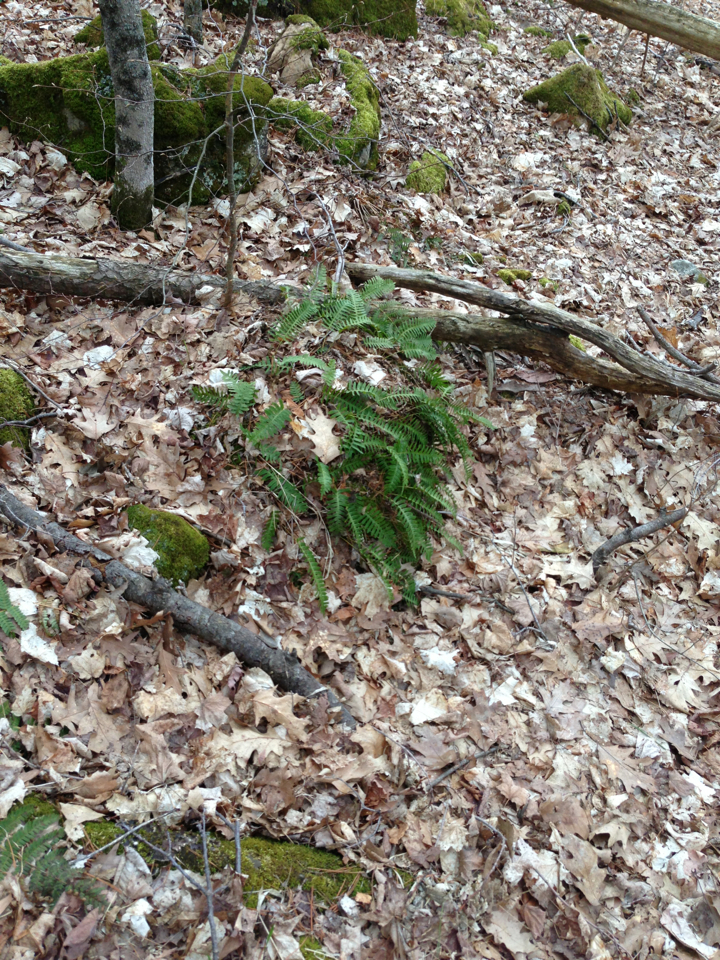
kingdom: Plantae
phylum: Tracheophyta
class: Polypodiopsida
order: Polypodiales
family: Polypodiaceae
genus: Polypodium
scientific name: Polypodium virginianum
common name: American wall fern
